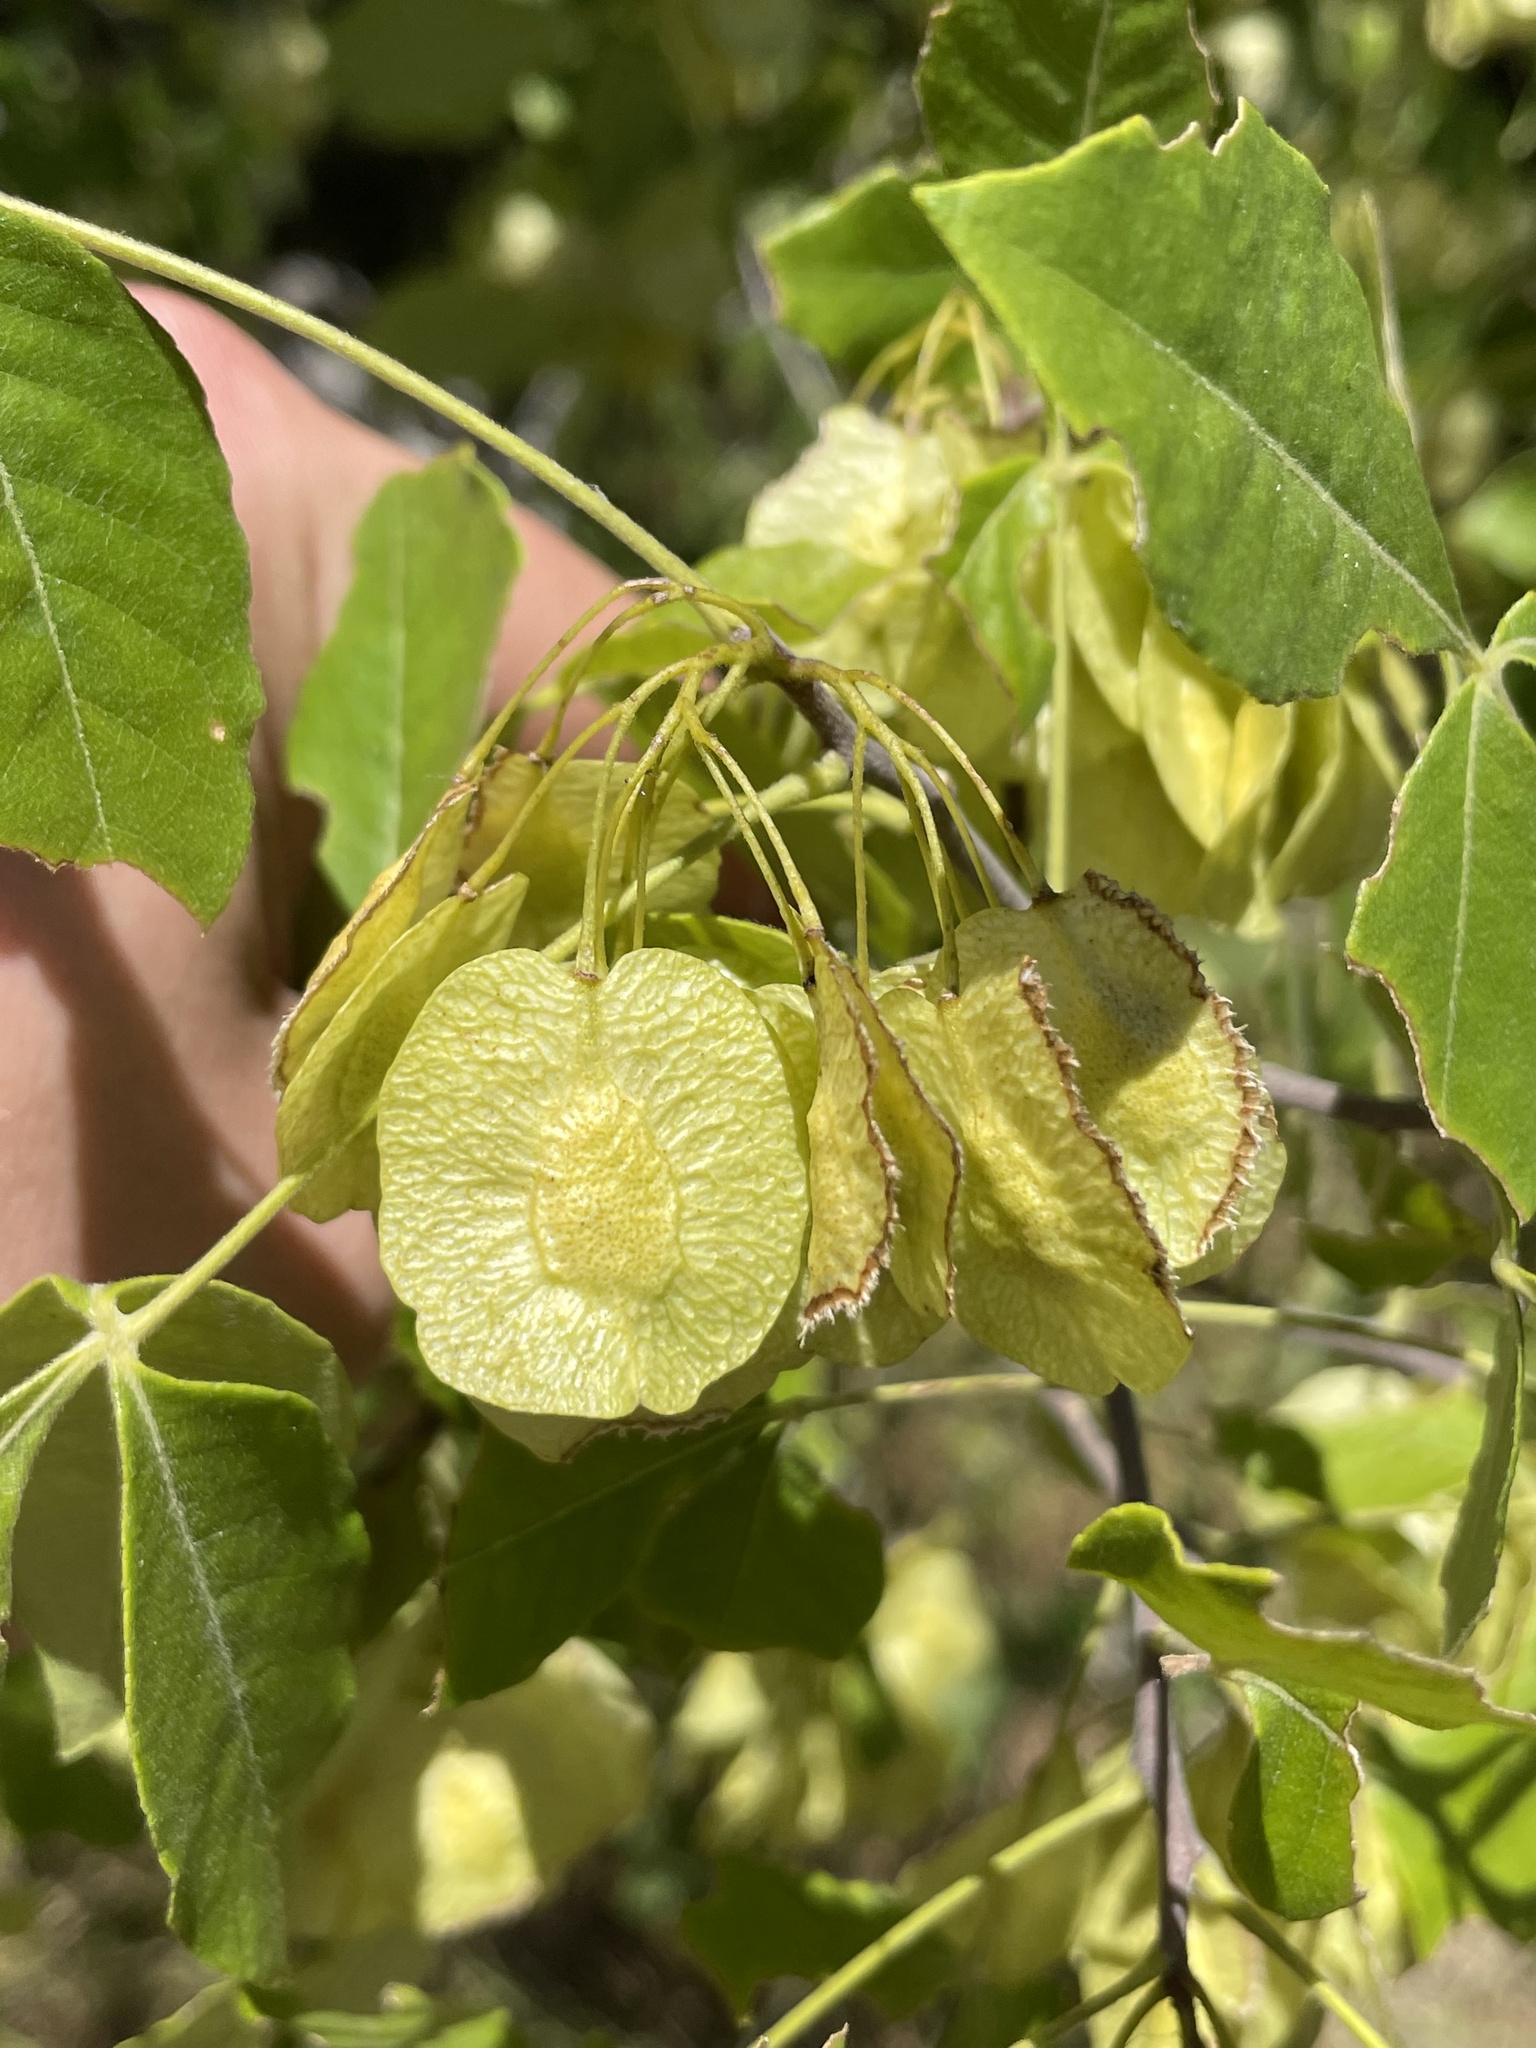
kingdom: Plantae
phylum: Tracheophyta
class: Magnoliopsida
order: Sapindales
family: Rutaceae
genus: Ptelea
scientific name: Ptelea trifoliata
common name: Common hop-tree
